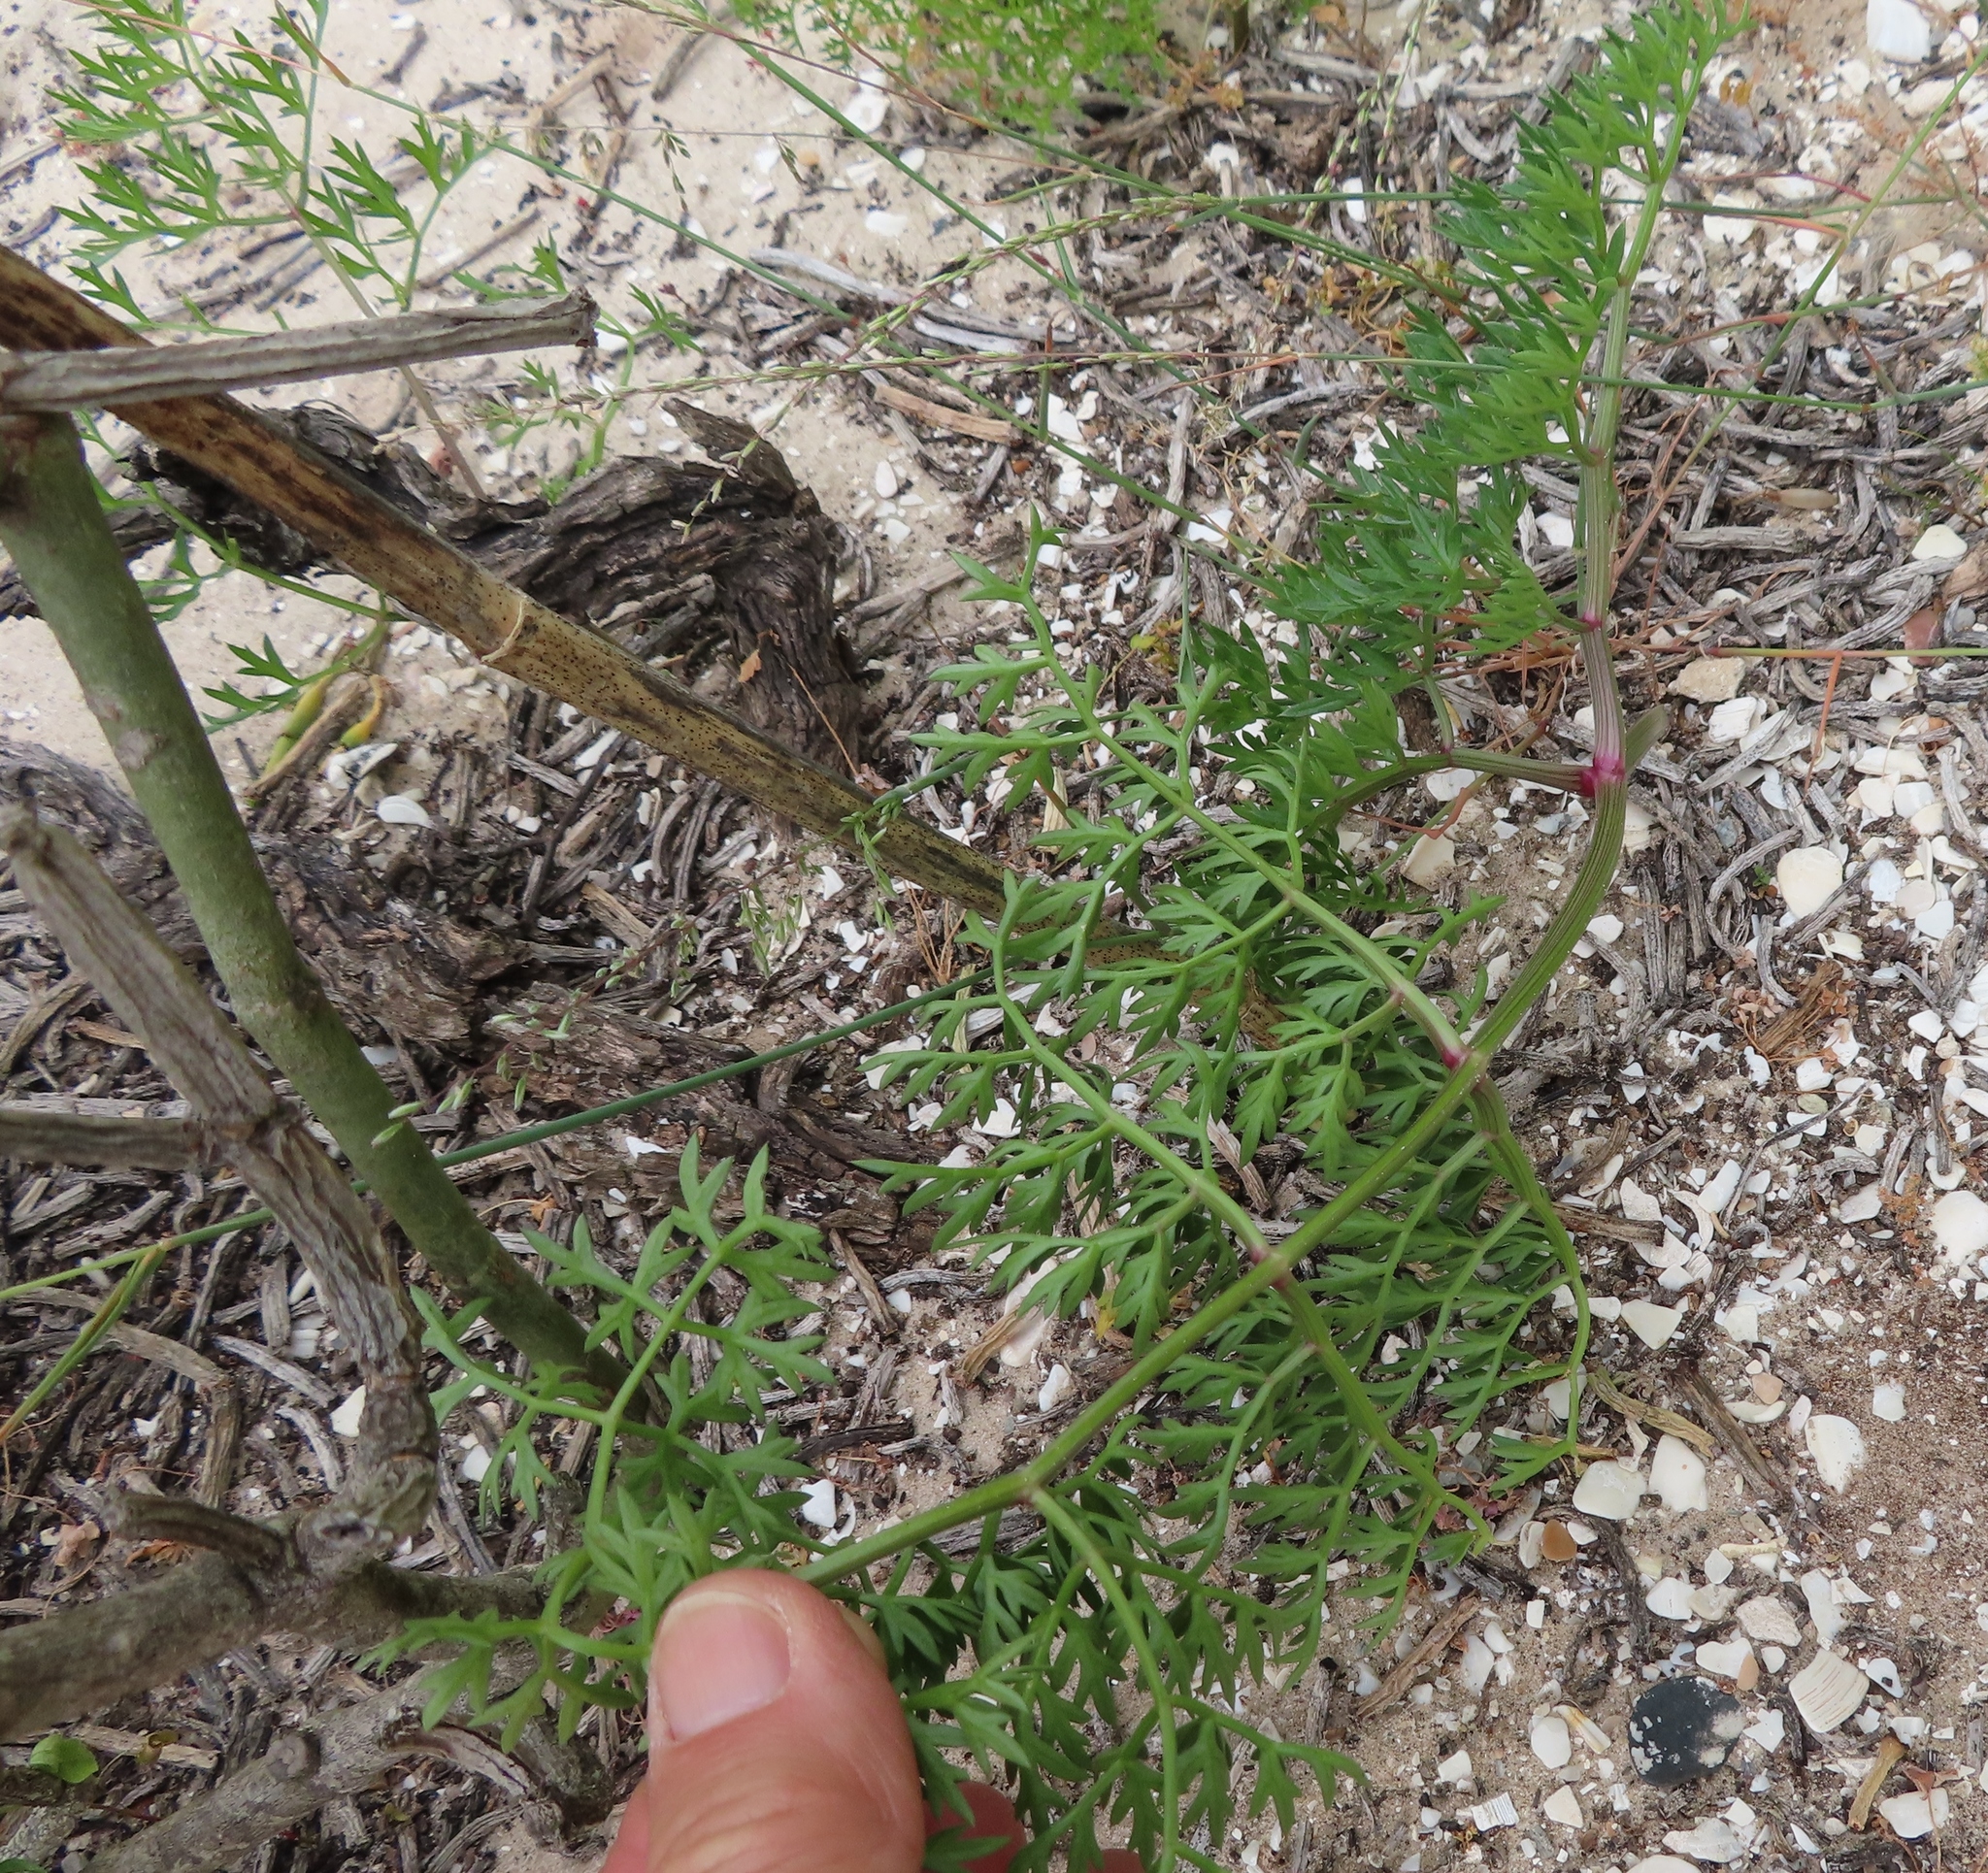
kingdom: Plantae
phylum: Tracheophyta
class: Magnoliopsida
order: Geraniales
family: Geraniaceae
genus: Pelargonium
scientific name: Pelargonium triste
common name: Night-scent pelargonium
